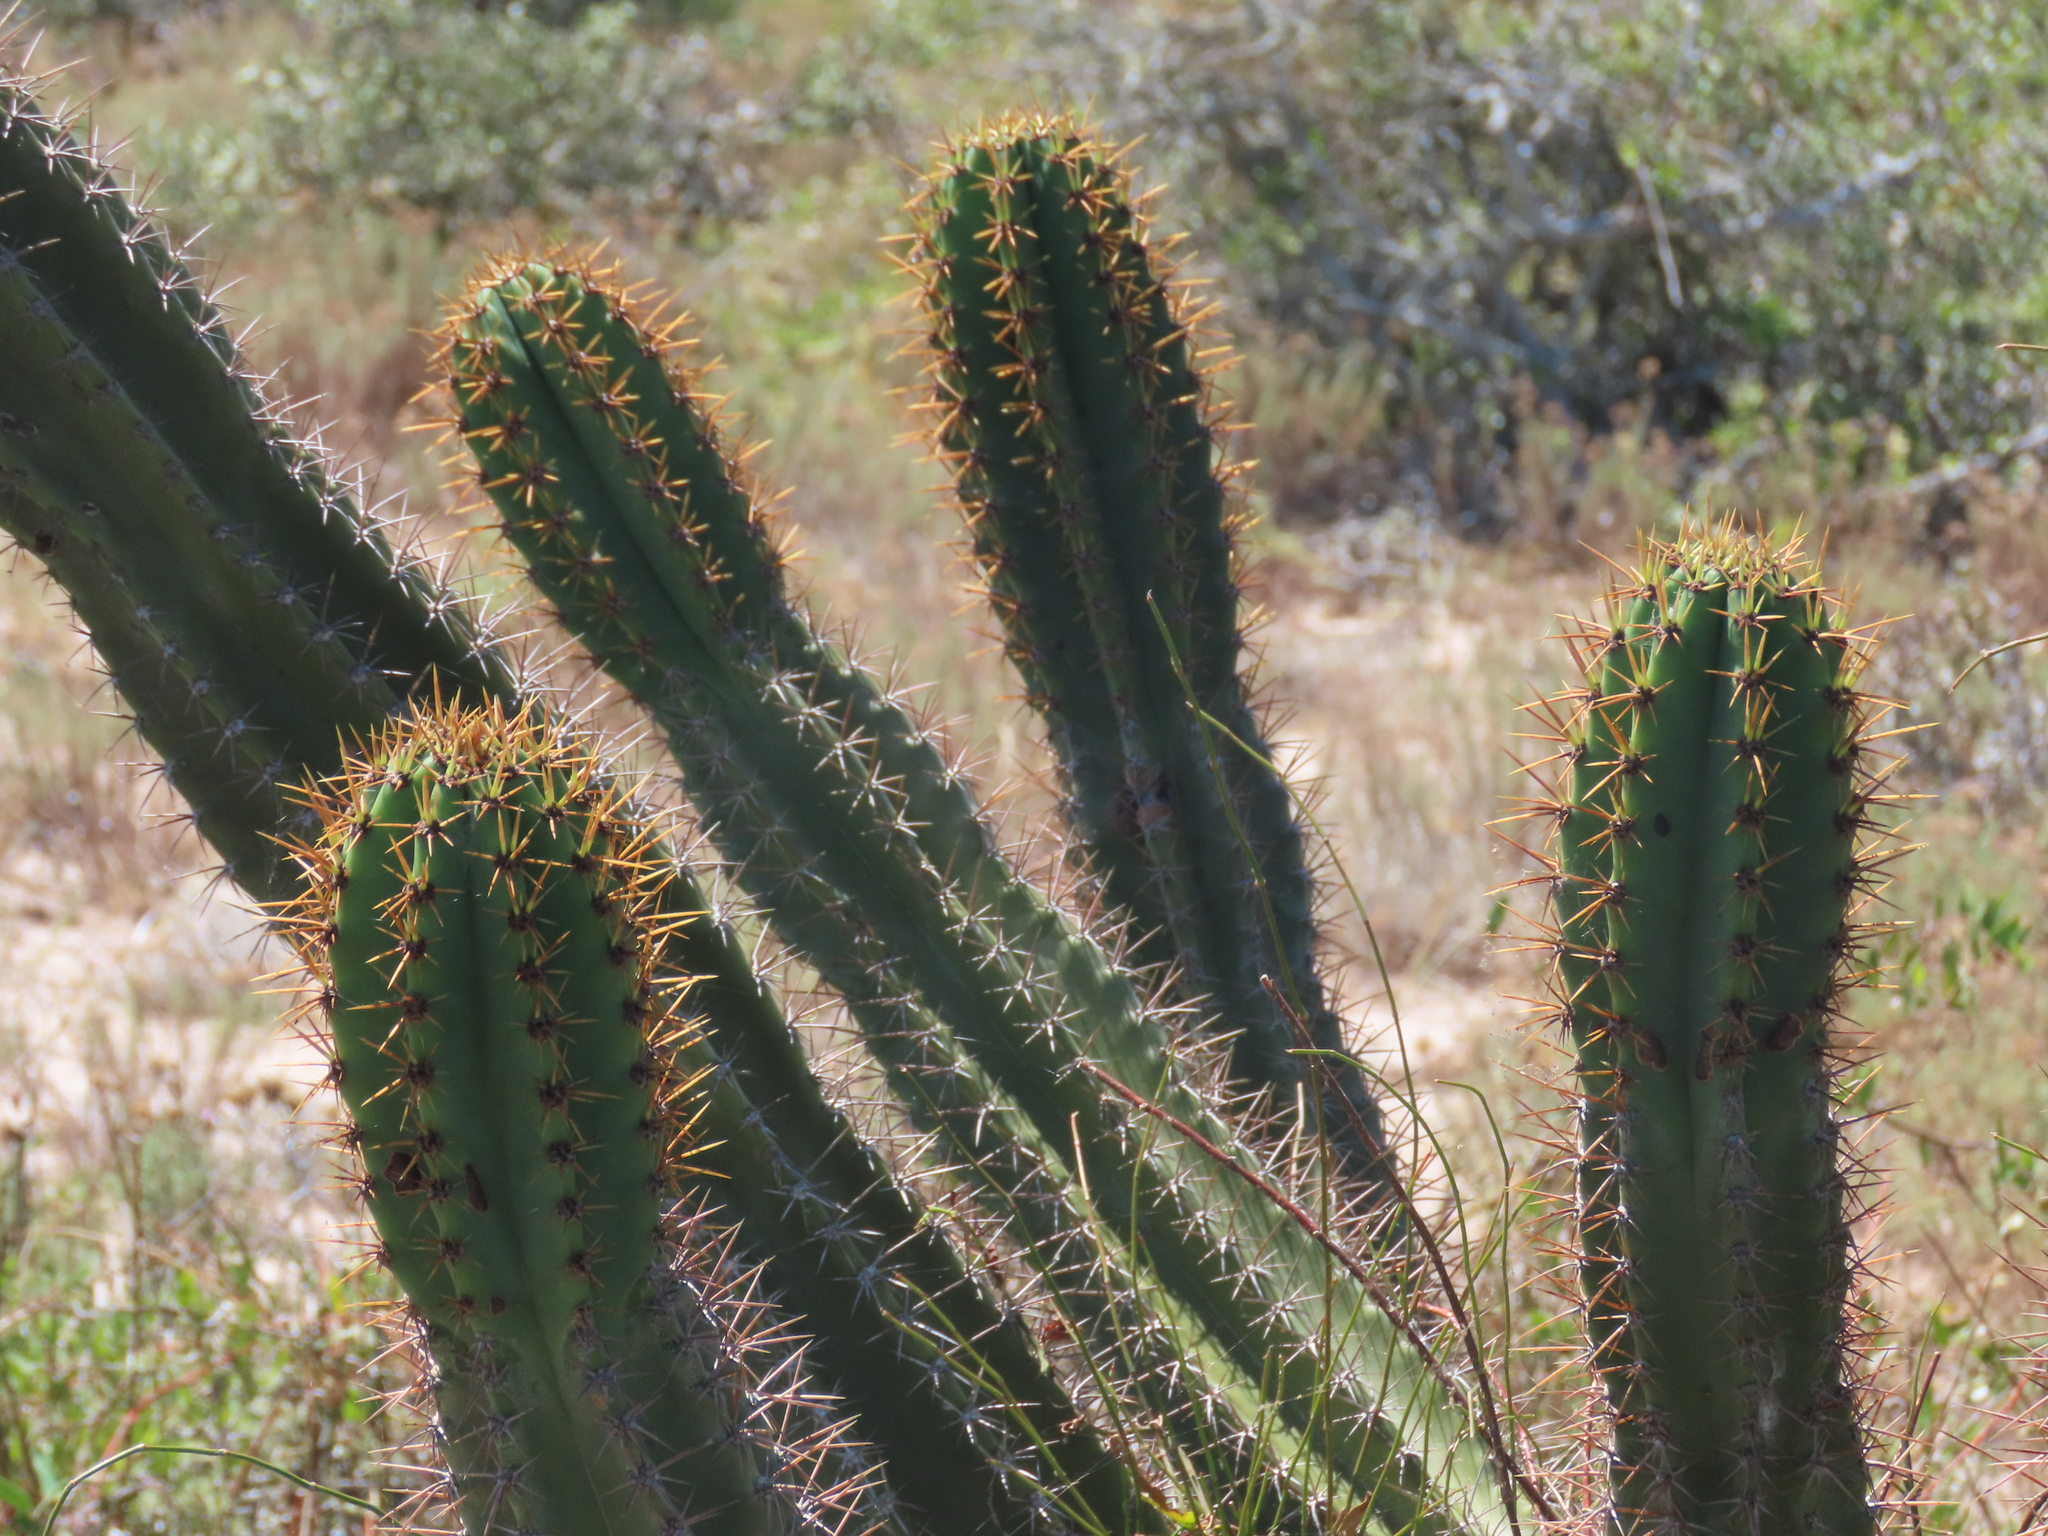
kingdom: Plantae
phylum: Tracheophyta
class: Magnoliopsida
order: Caryophyllales
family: Cactaceae
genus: Cereus
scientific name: Cereus hildmannianus
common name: Hedge cactus
